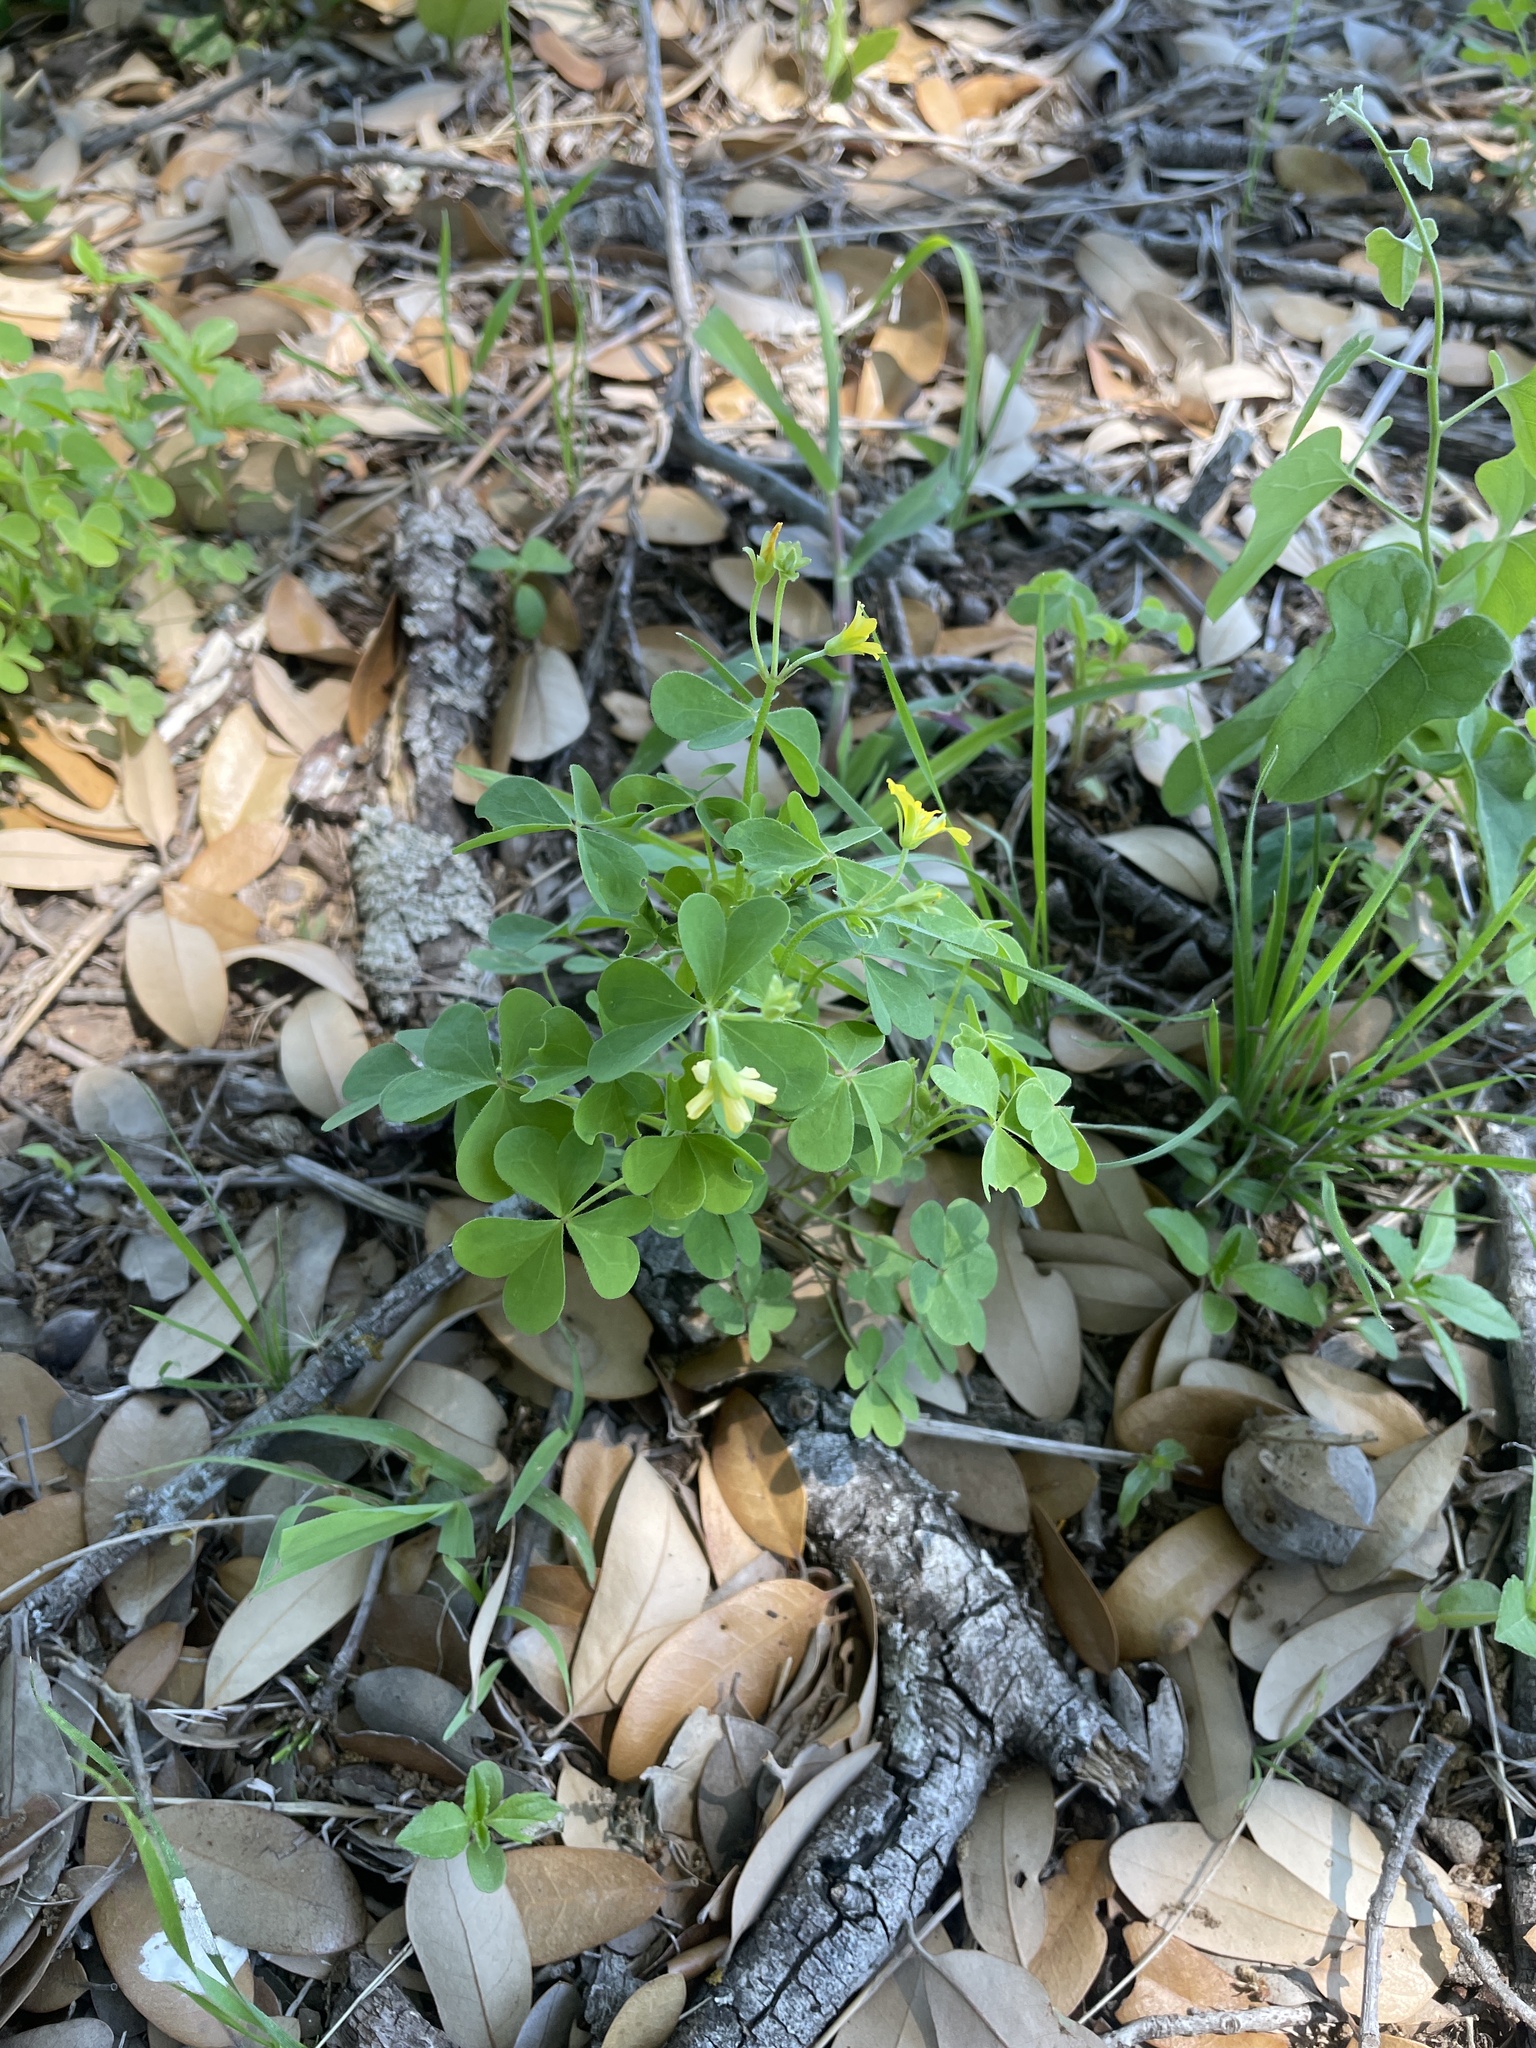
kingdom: Plantae
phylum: Tracheophyta
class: Magnoliopsida
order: Oxalidales
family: Oxalidaceae
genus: Oxalis
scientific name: Oxalis dillenii
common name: Sussex yellow-sorrel
